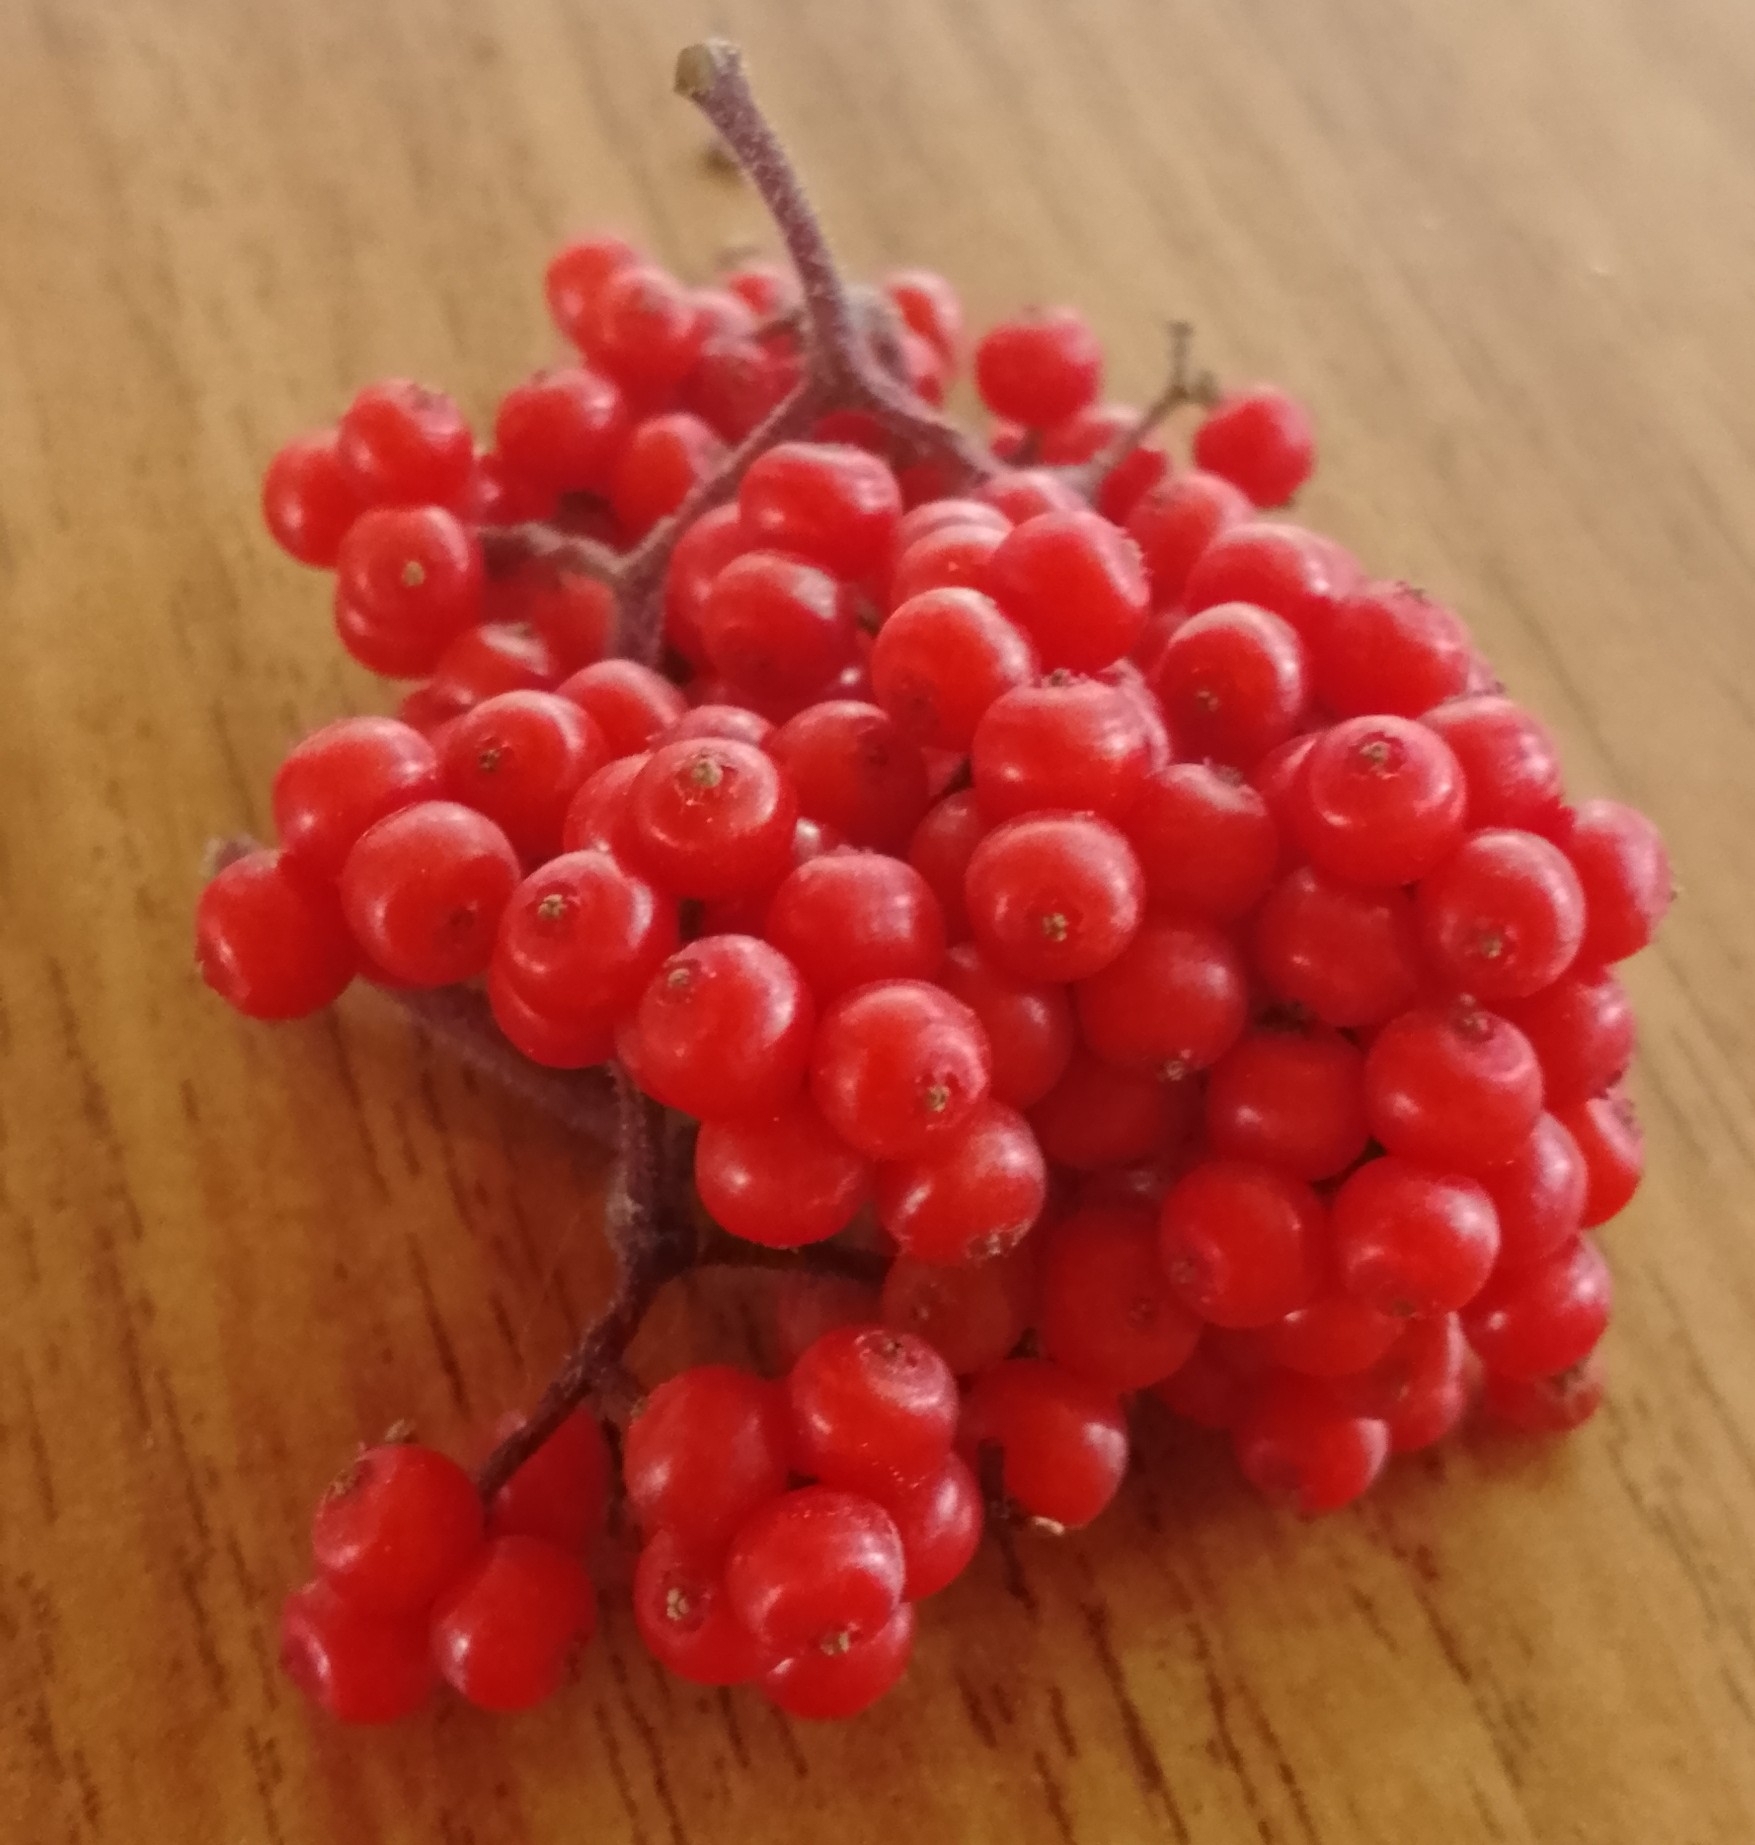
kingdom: Plantae
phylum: Tracheophyta
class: Magnoliopsida
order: Dipsacales
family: Viburnaceae
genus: Sambucus
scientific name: Sambucus sibirica
